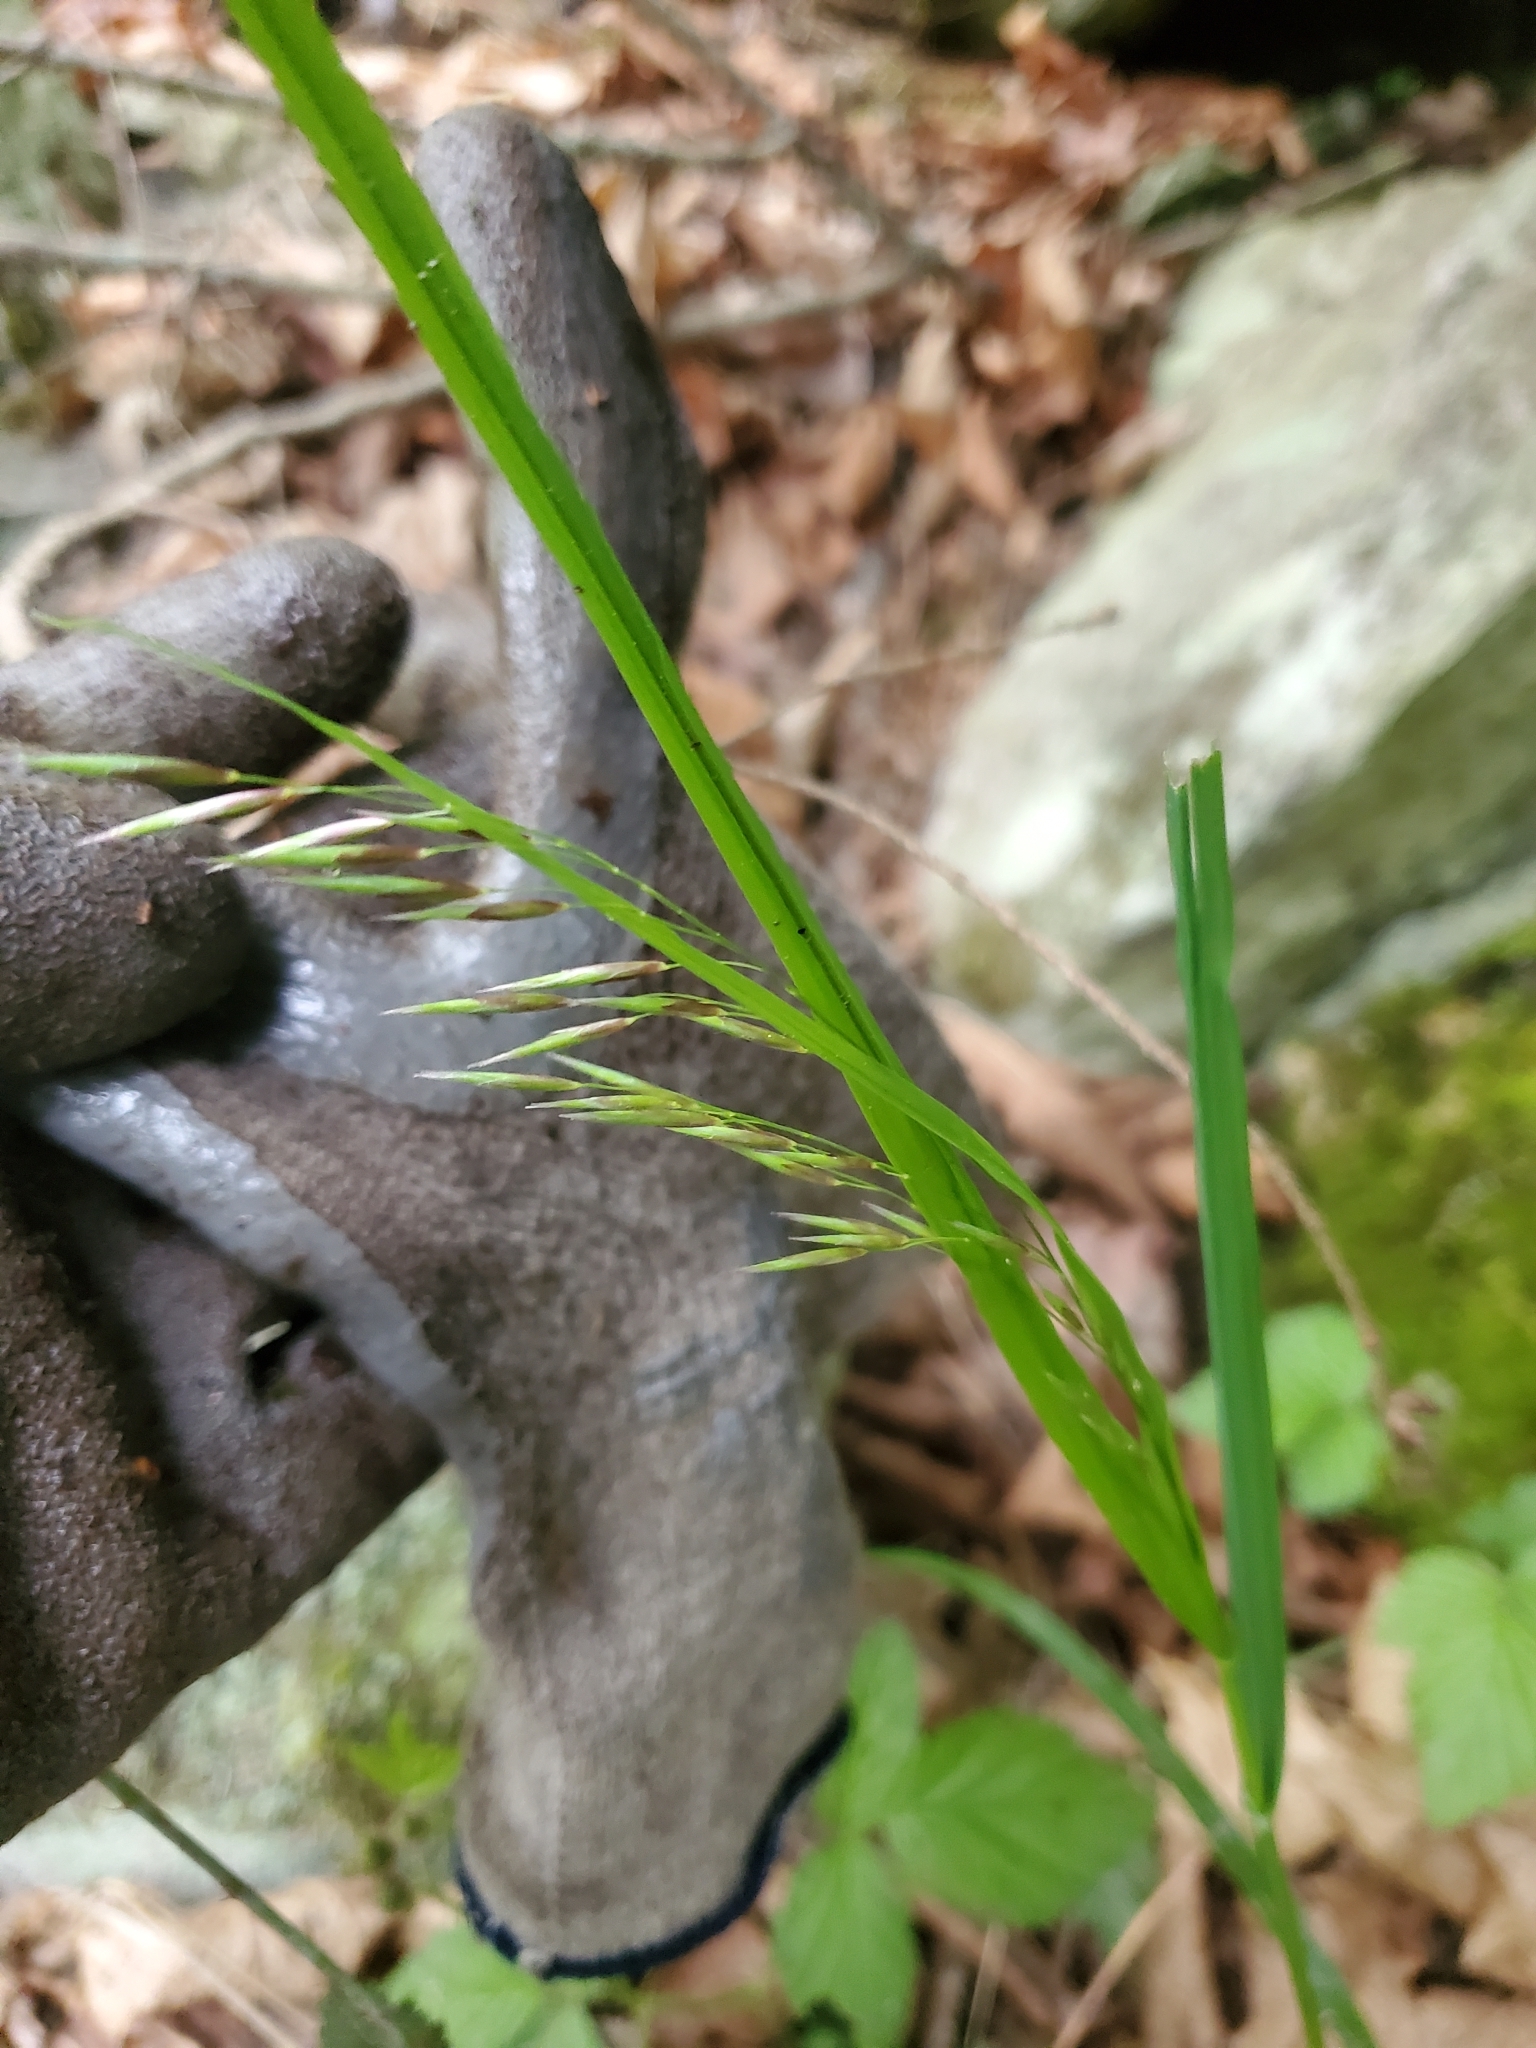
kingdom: Plantae
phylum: Tracheophyta
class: Liliopsida
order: Poales
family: Poaceae
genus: Melica
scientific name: Melica subulata
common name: Tapered oniongrass
